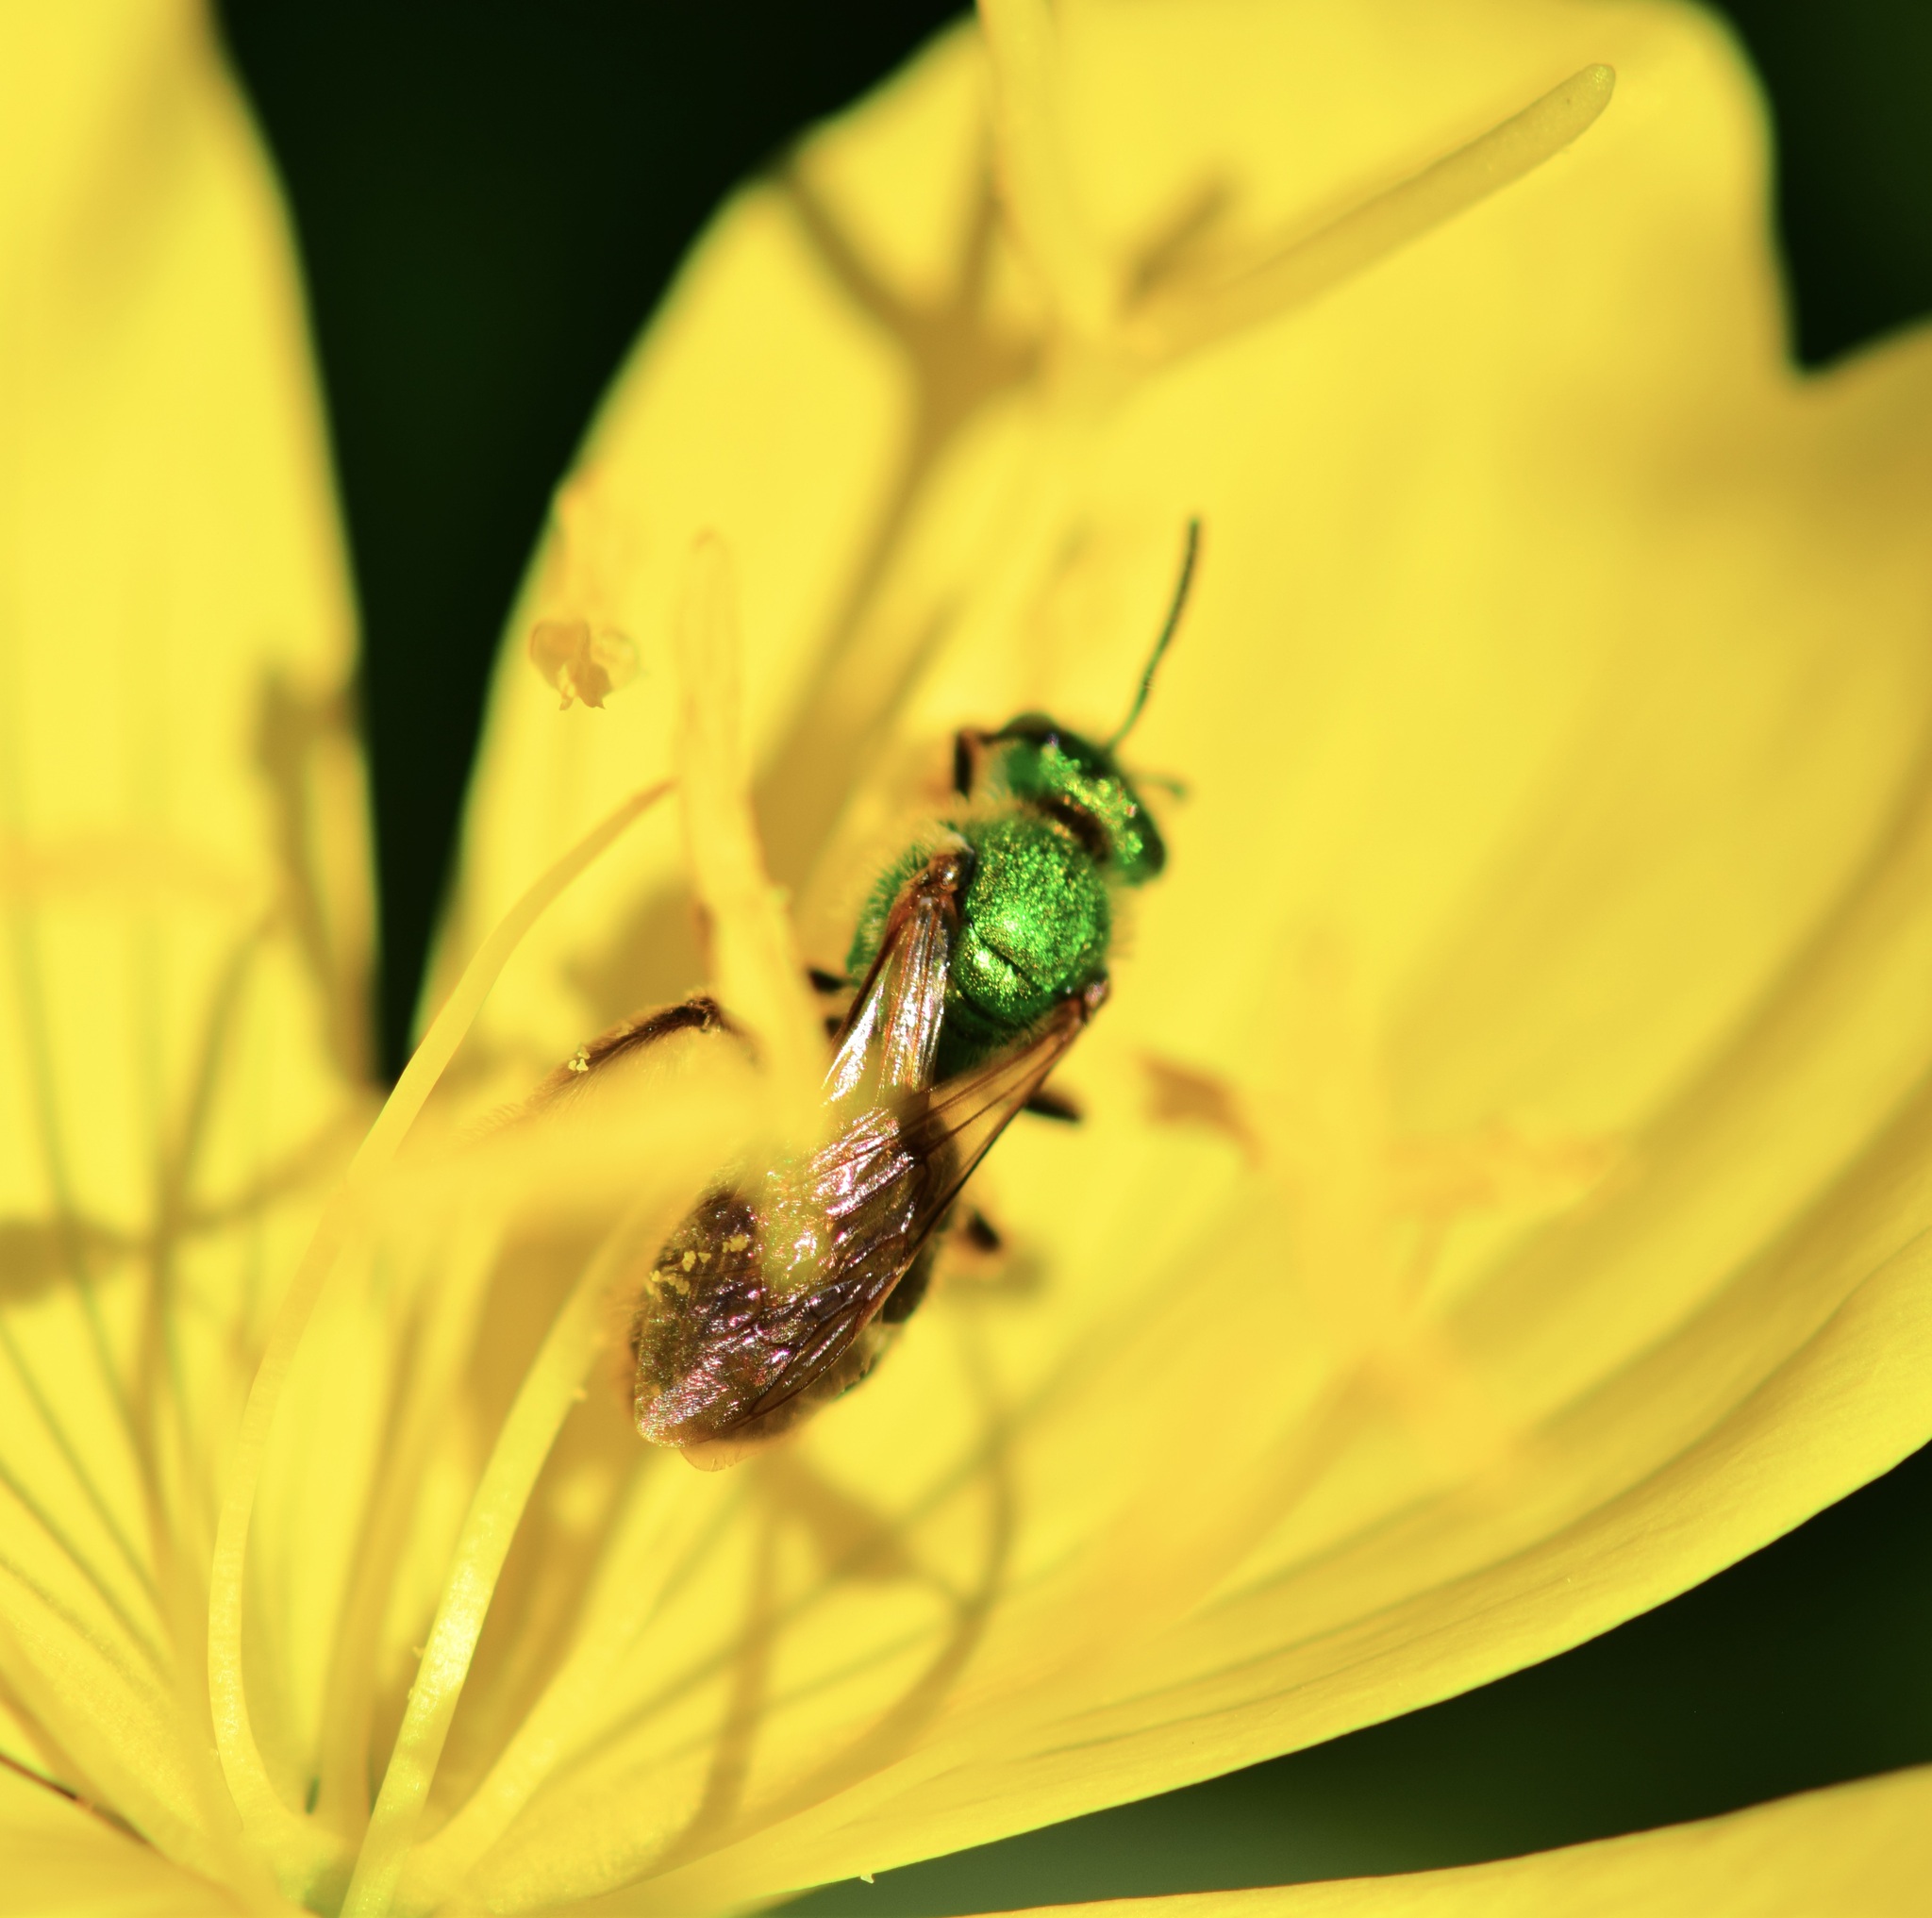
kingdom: Animalia
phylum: Arthropoda
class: Insecta
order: Hymenoptera
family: Halictidae
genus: Agapostemon
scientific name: Agapostemon virescens
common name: Bicolored striped sweat bee
